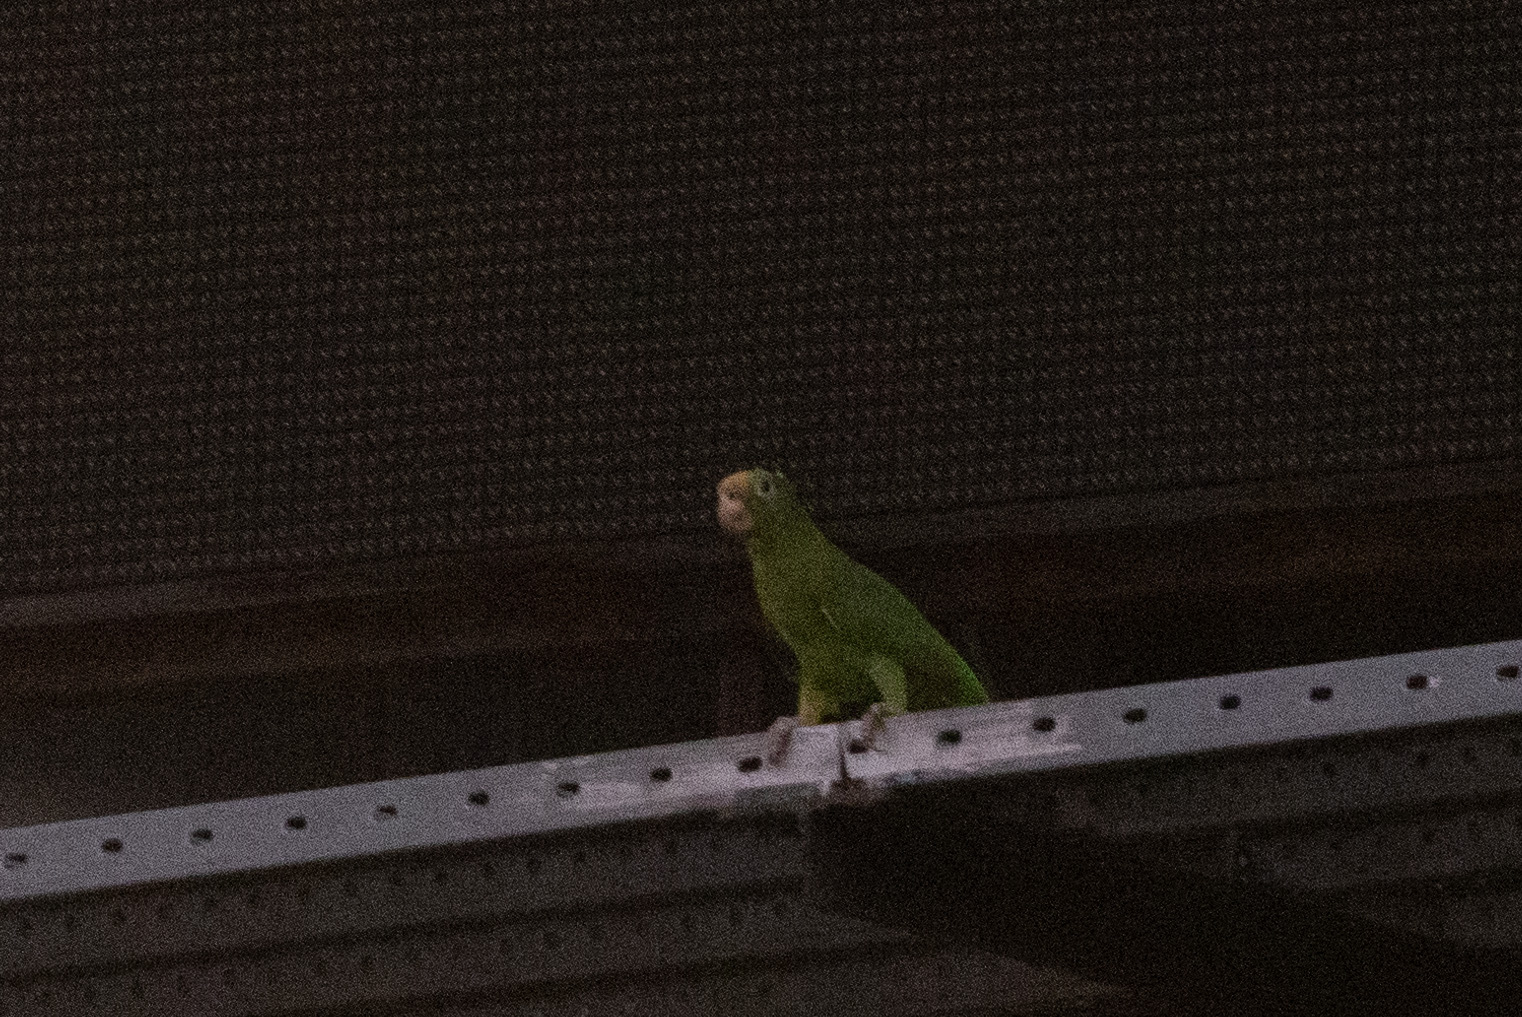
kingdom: Animalia
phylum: Chordata
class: Aves
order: Psittaciformes
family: Psittacidae
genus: Amazona
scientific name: Amazona ochrocephala
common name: Yellow-crowned amazon
